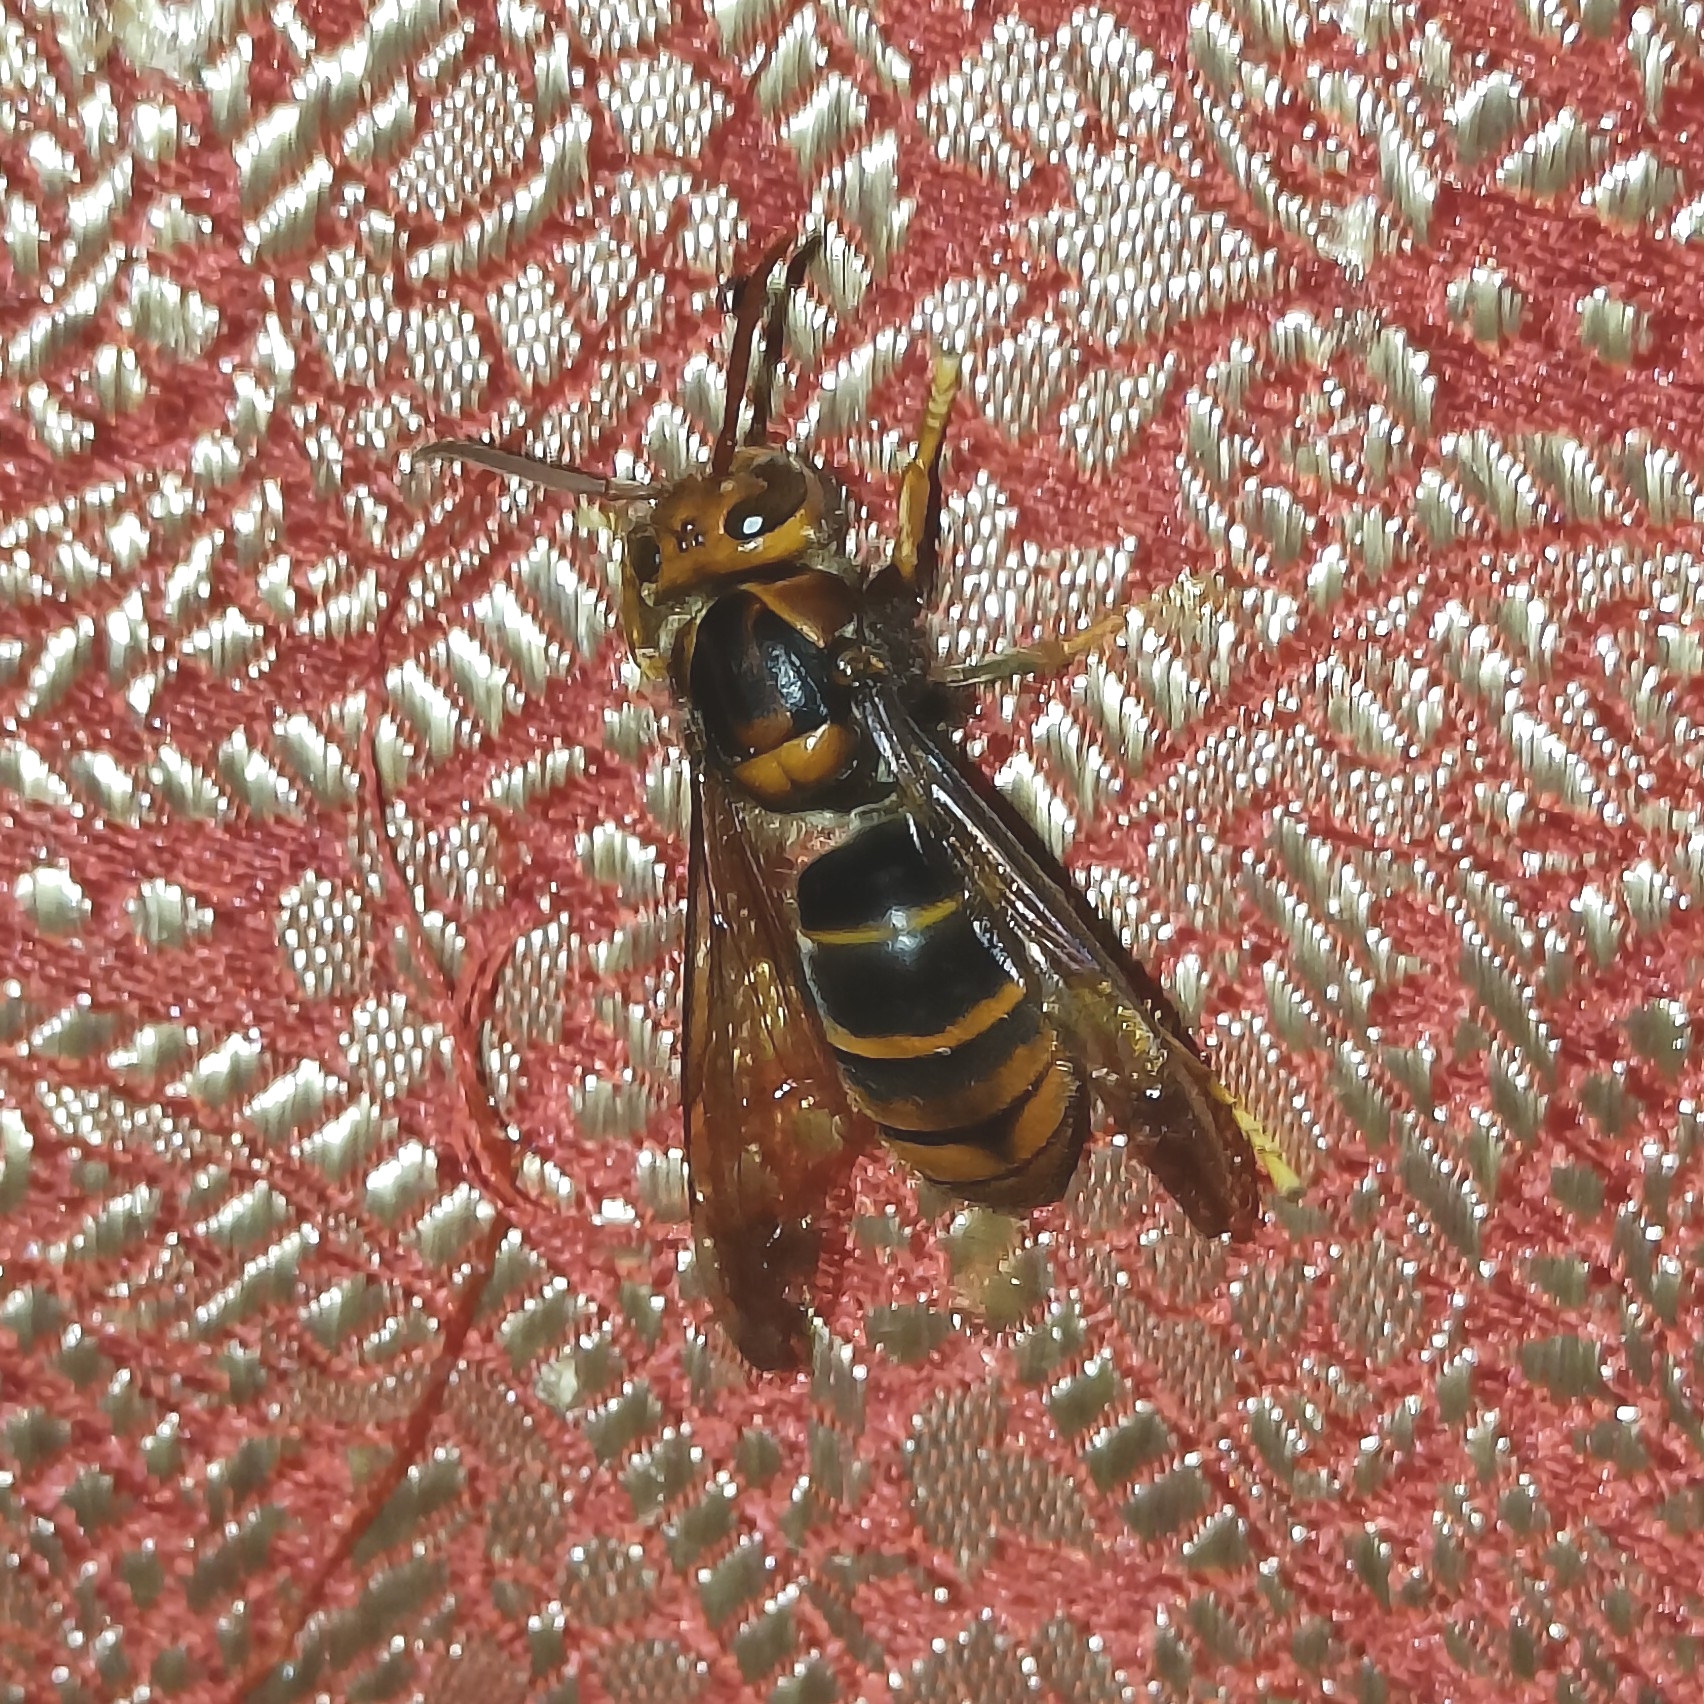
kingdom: Animalia
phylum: Arthropoda
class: Insecta
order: Hymenoptera
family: Vespidae
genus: Vespa
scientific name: Vespa velutina
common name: Asian hornet
